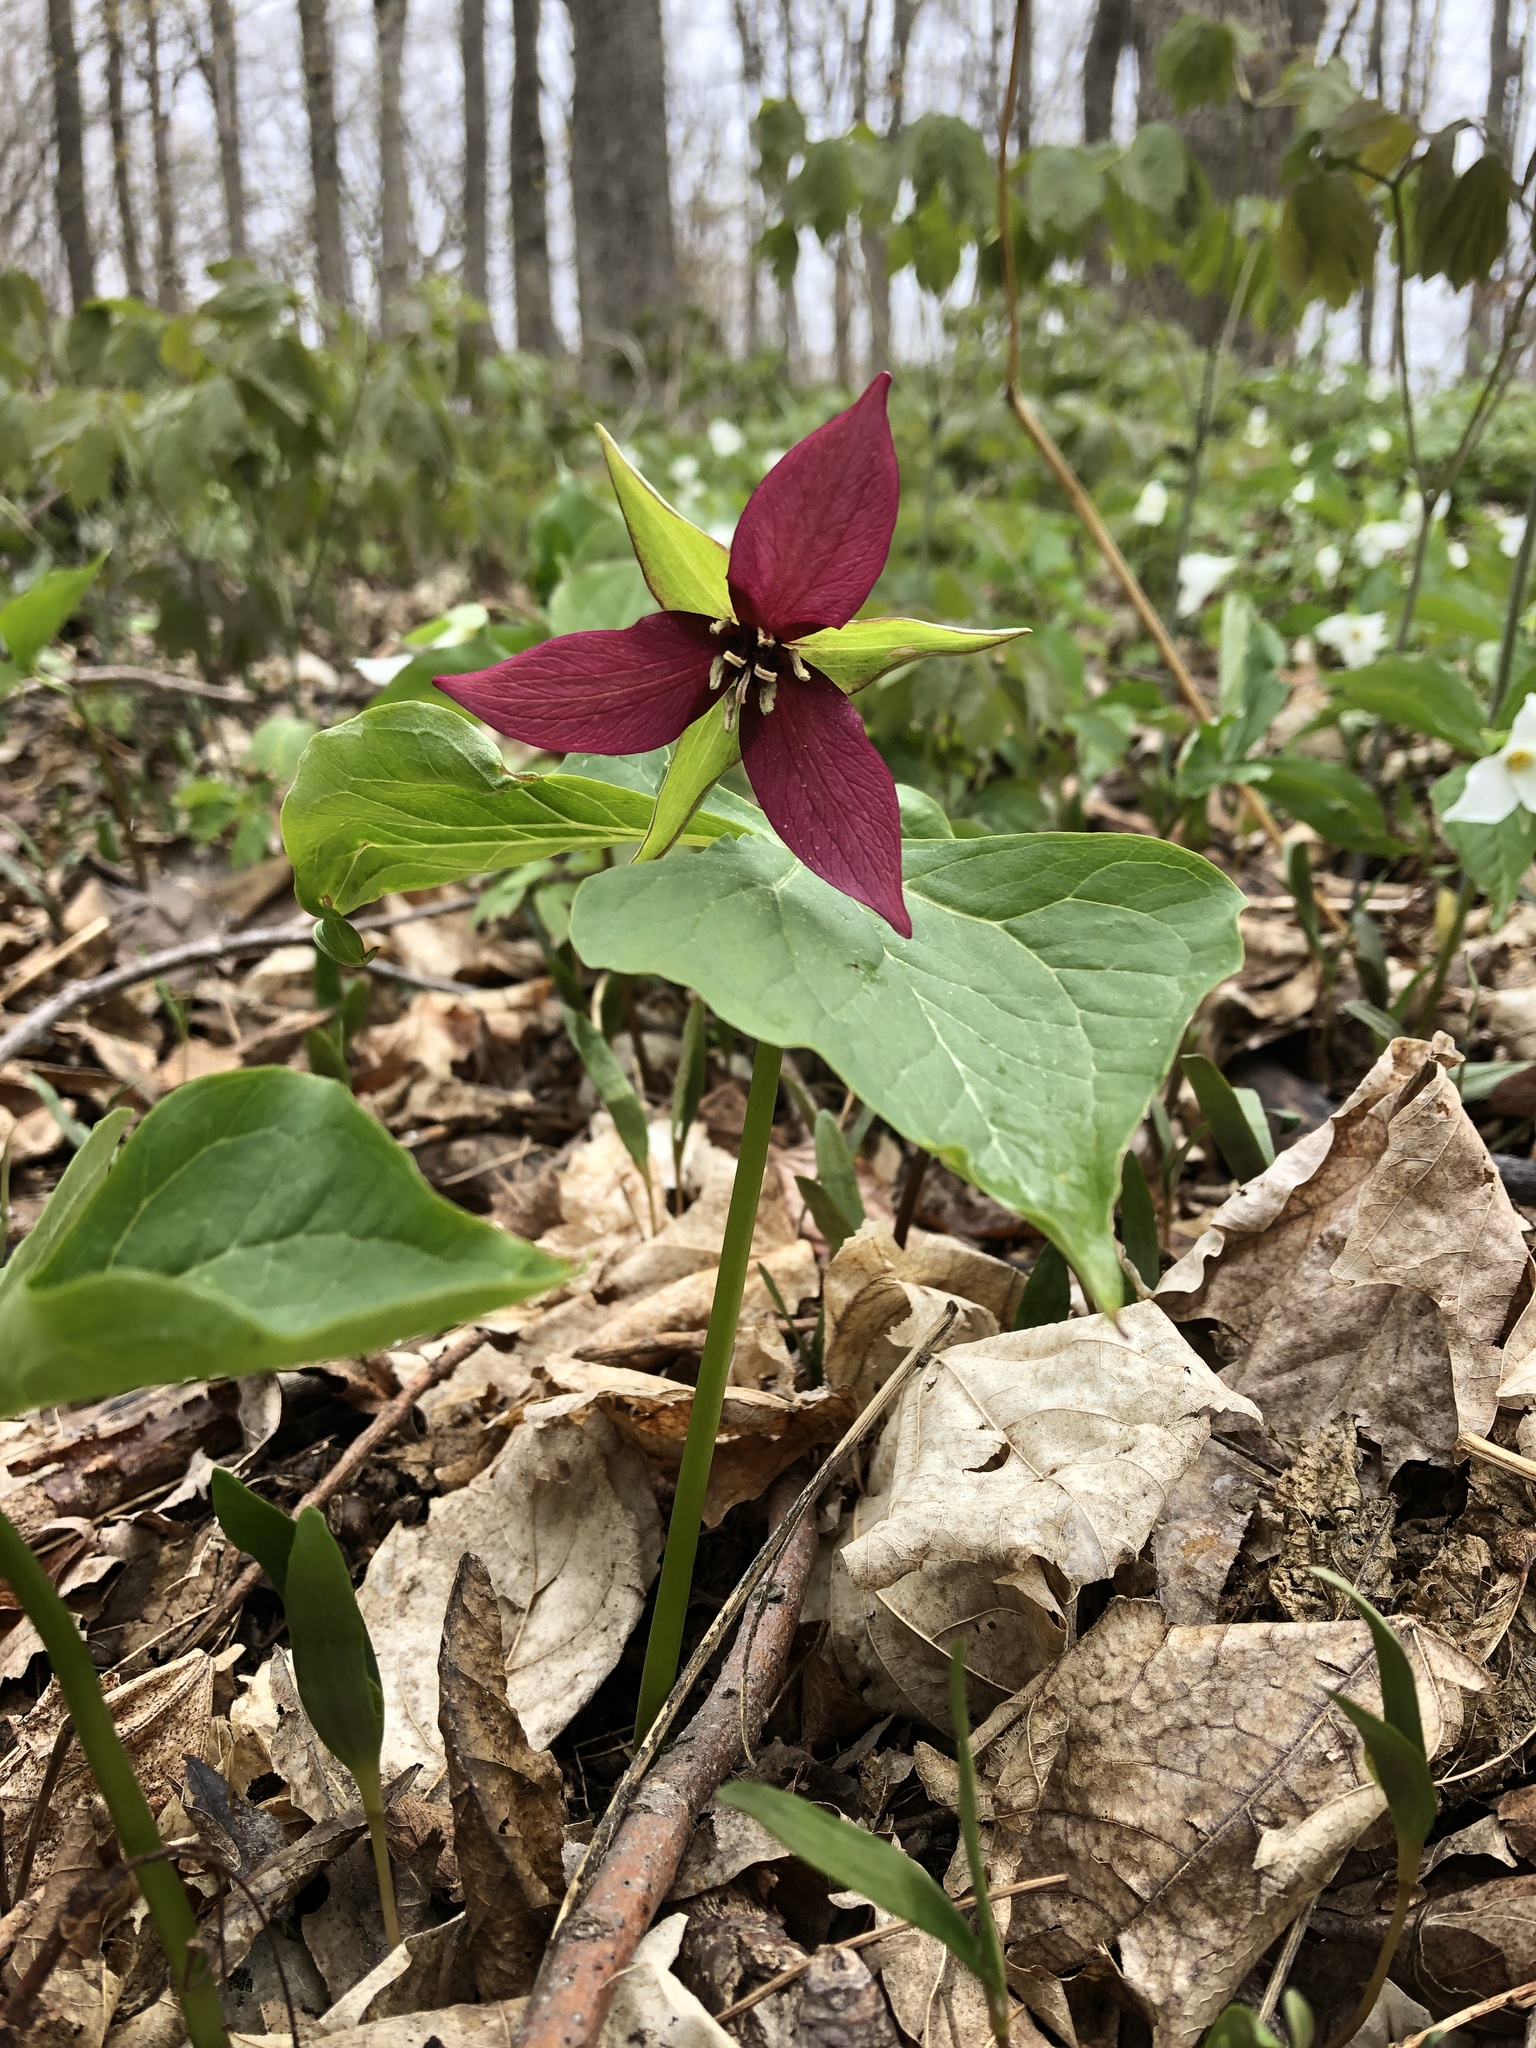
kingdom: Plantae
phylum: Tracheophyta
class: Liliopsida
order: Liliales
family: Melanthiaceae
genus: Trillium
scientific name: Trillium erectum
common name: Purple trillium
